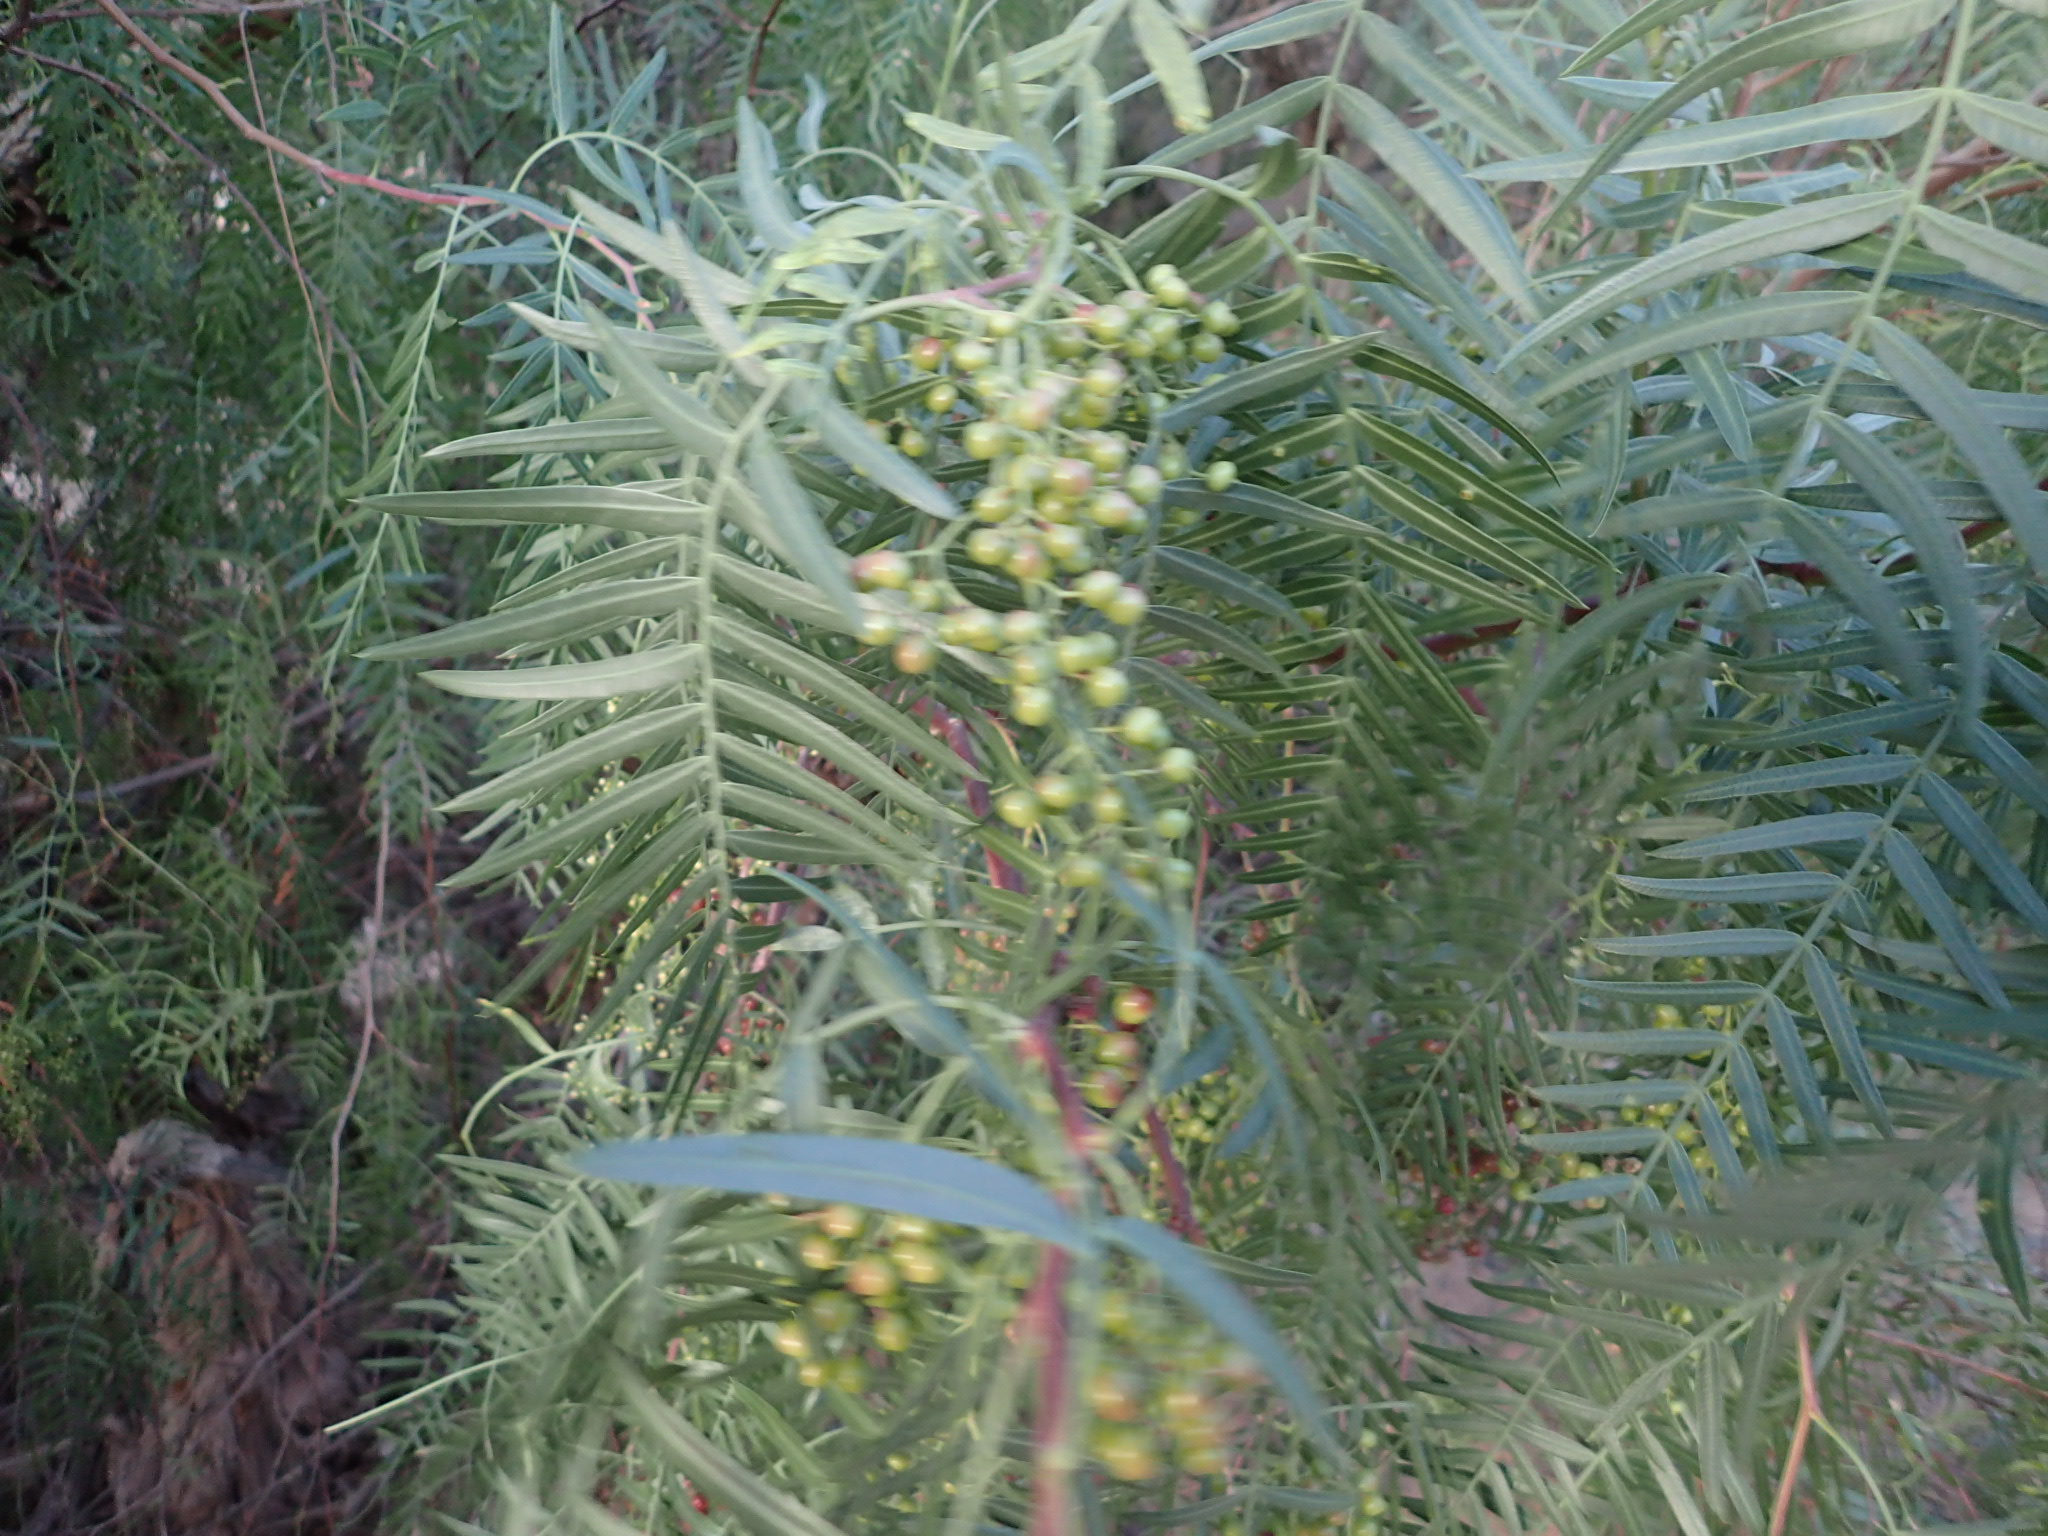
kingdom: Plantae
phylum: Tracheophyta
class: Magnoliopsida
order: Sapindales
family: Anacardiaceae
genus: Schinus
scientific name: Schinus areira
